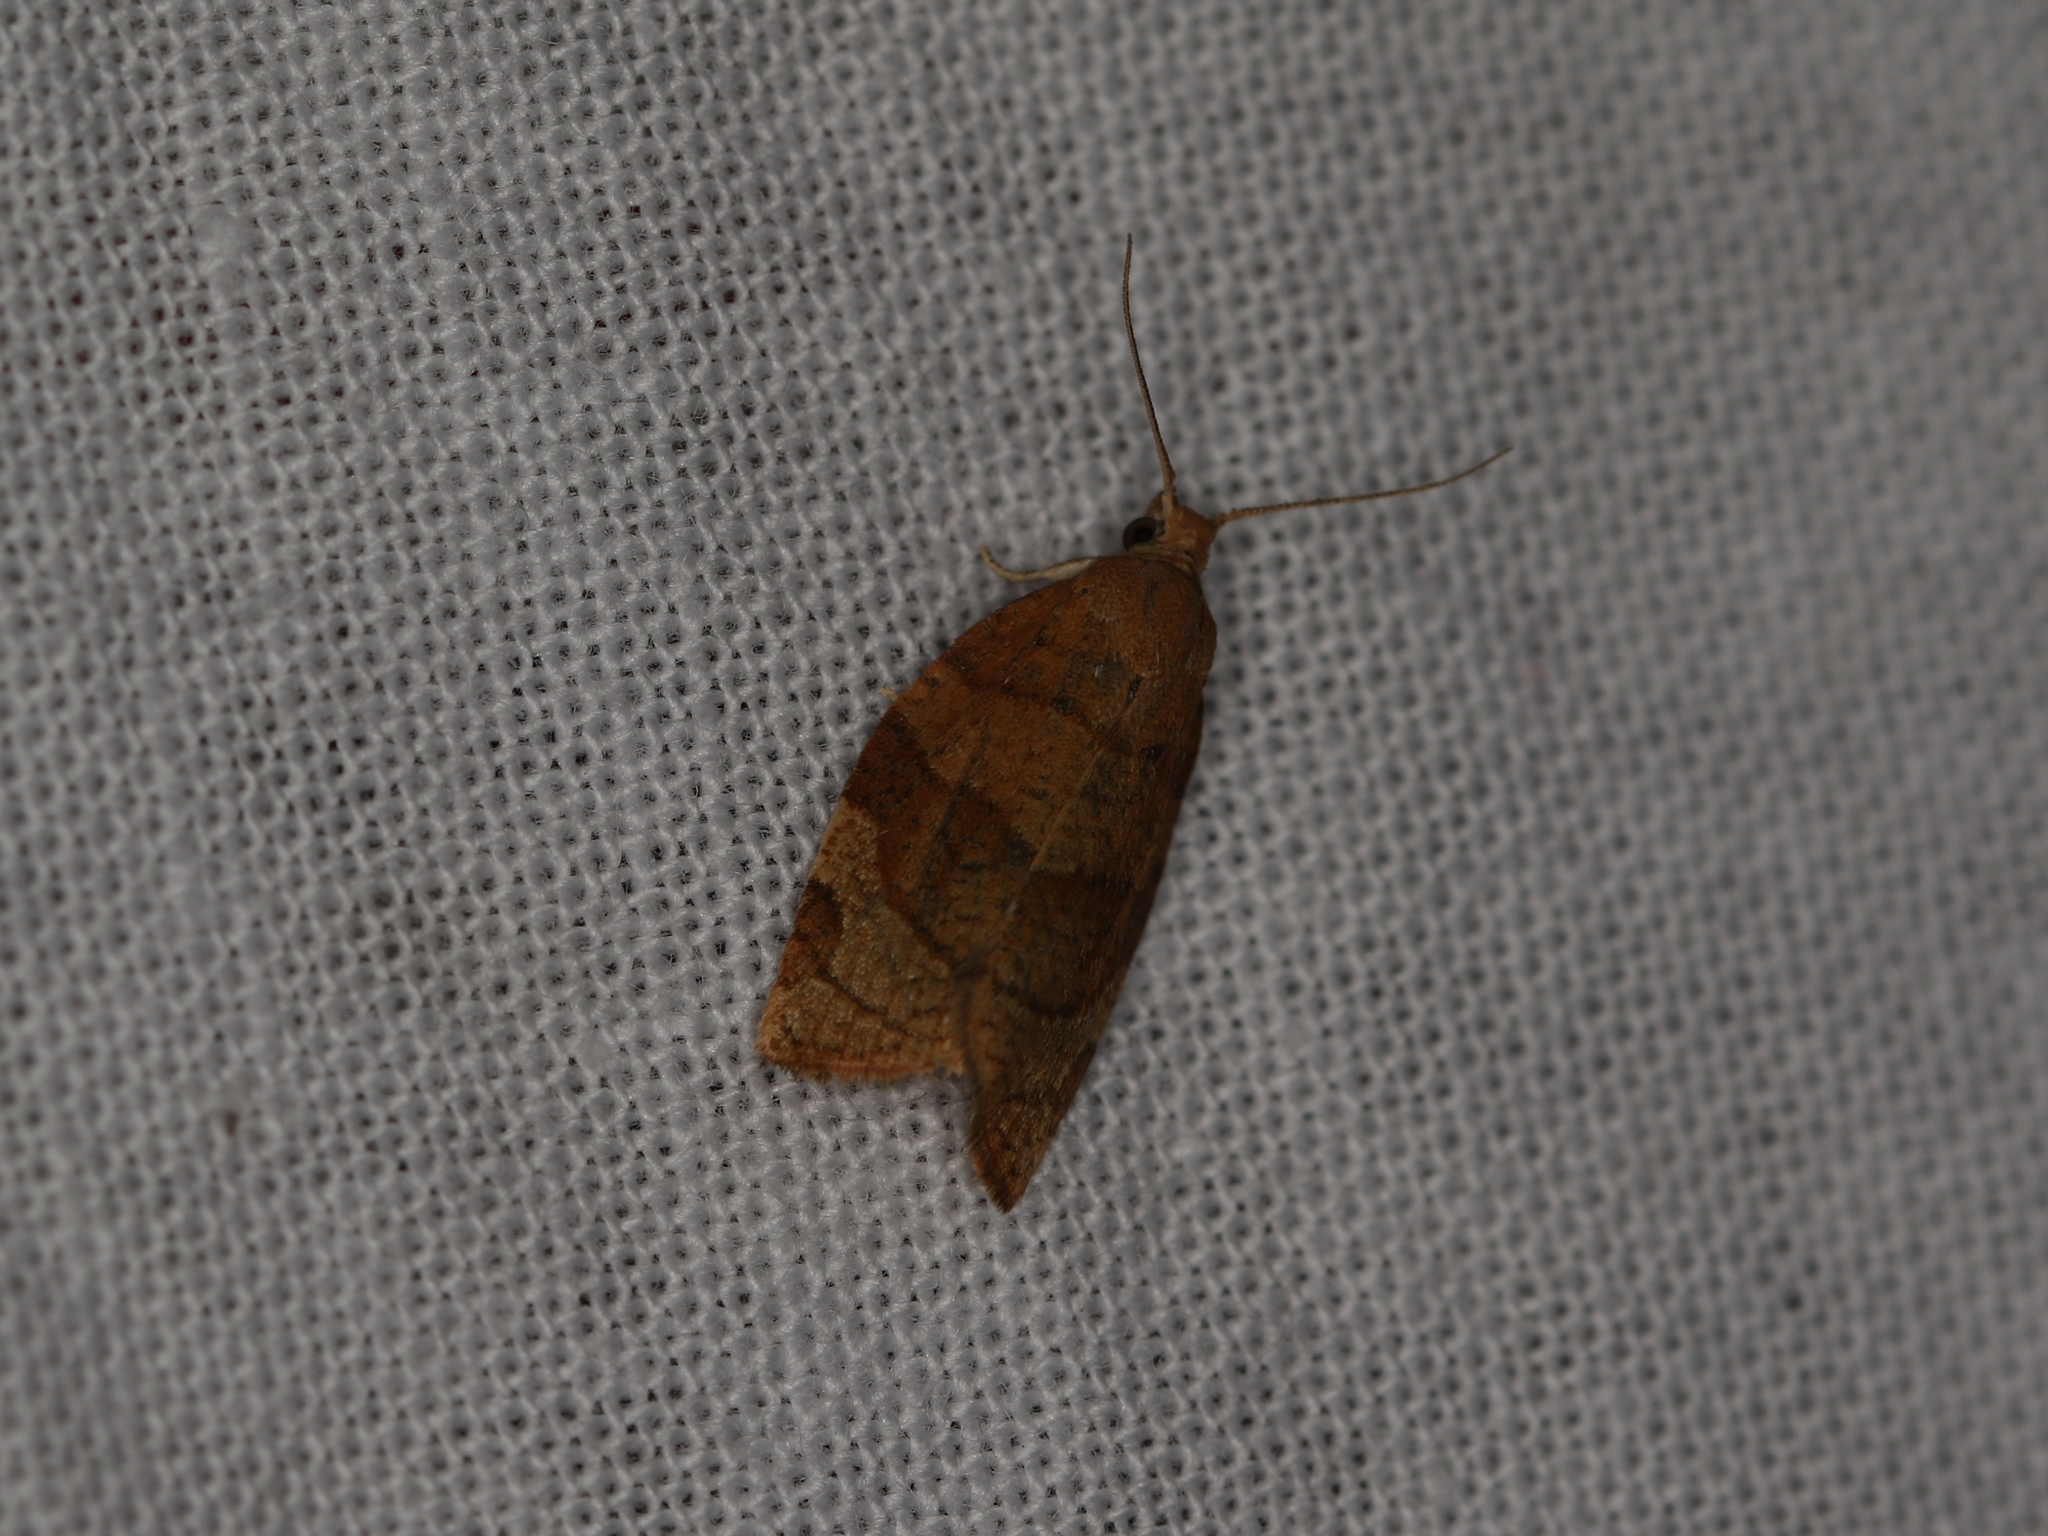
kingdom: Animalia
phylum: Arthropoda
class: Insecta
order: Lepidoptera
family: Tortricidae
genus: Pandemis
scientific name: Pandemis cerasana
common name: Barred fruit-tree tortrix
